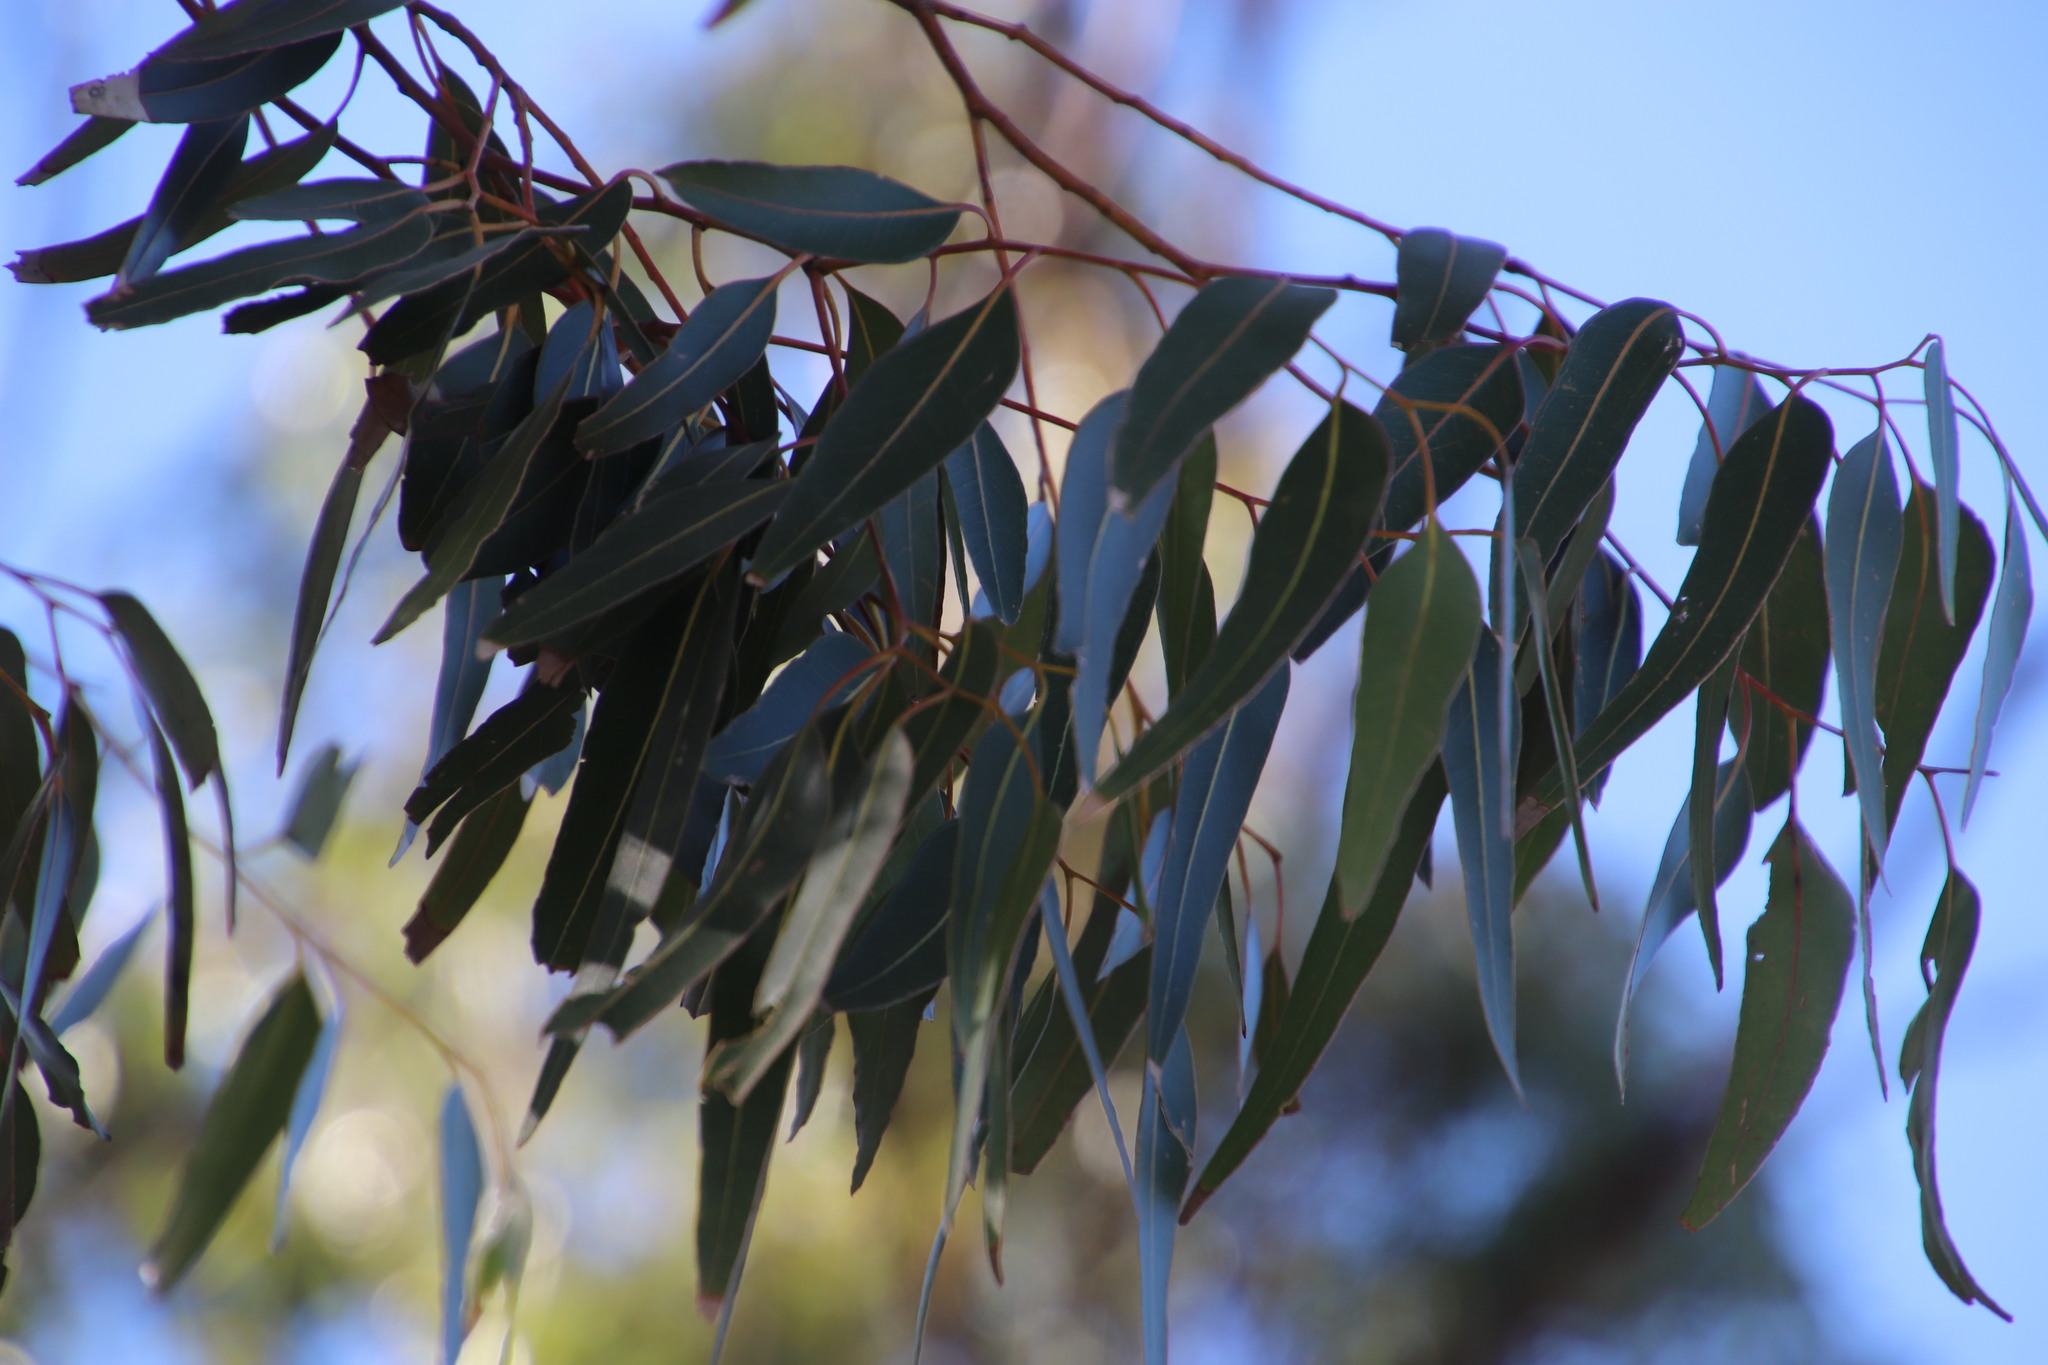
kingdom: Plantae
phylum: Tracheophyta
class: Magnoliopsida
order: Myrtales
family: Myrtaceae
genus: Eucalyptus
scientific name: Eucalyptus cladocalyx
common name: Sugargum
